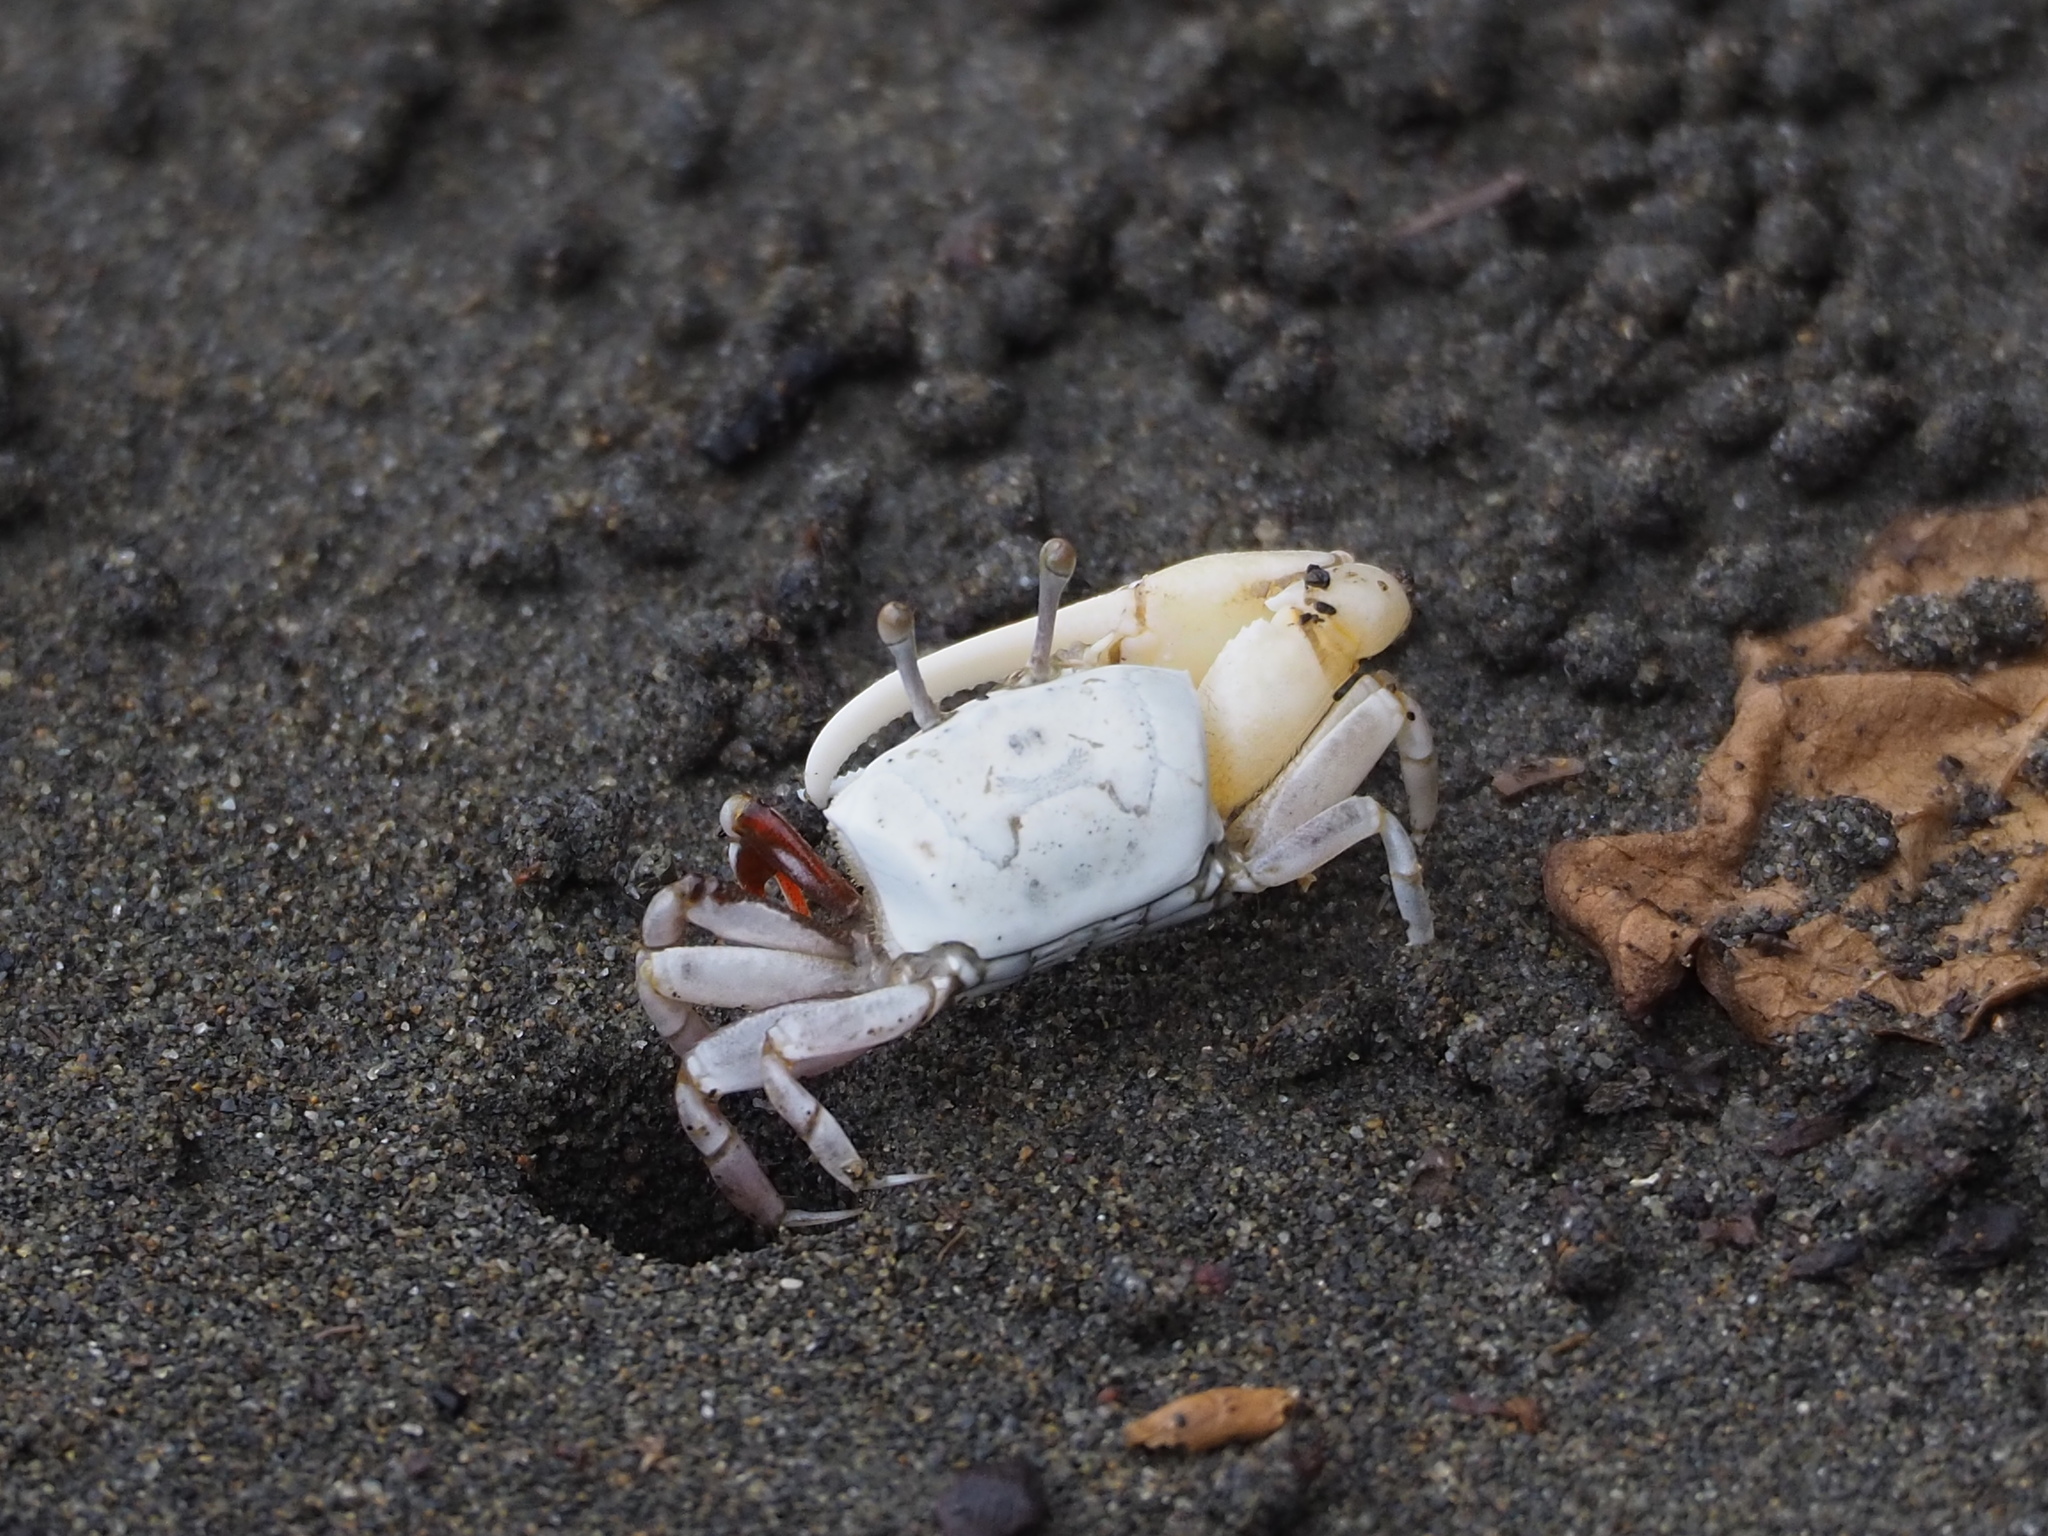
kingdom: Animalia
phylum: Arthropoda
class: Malacostraca
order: Decapoda
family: Ocypodidae
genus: Austruca
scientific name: Austruca lactea
